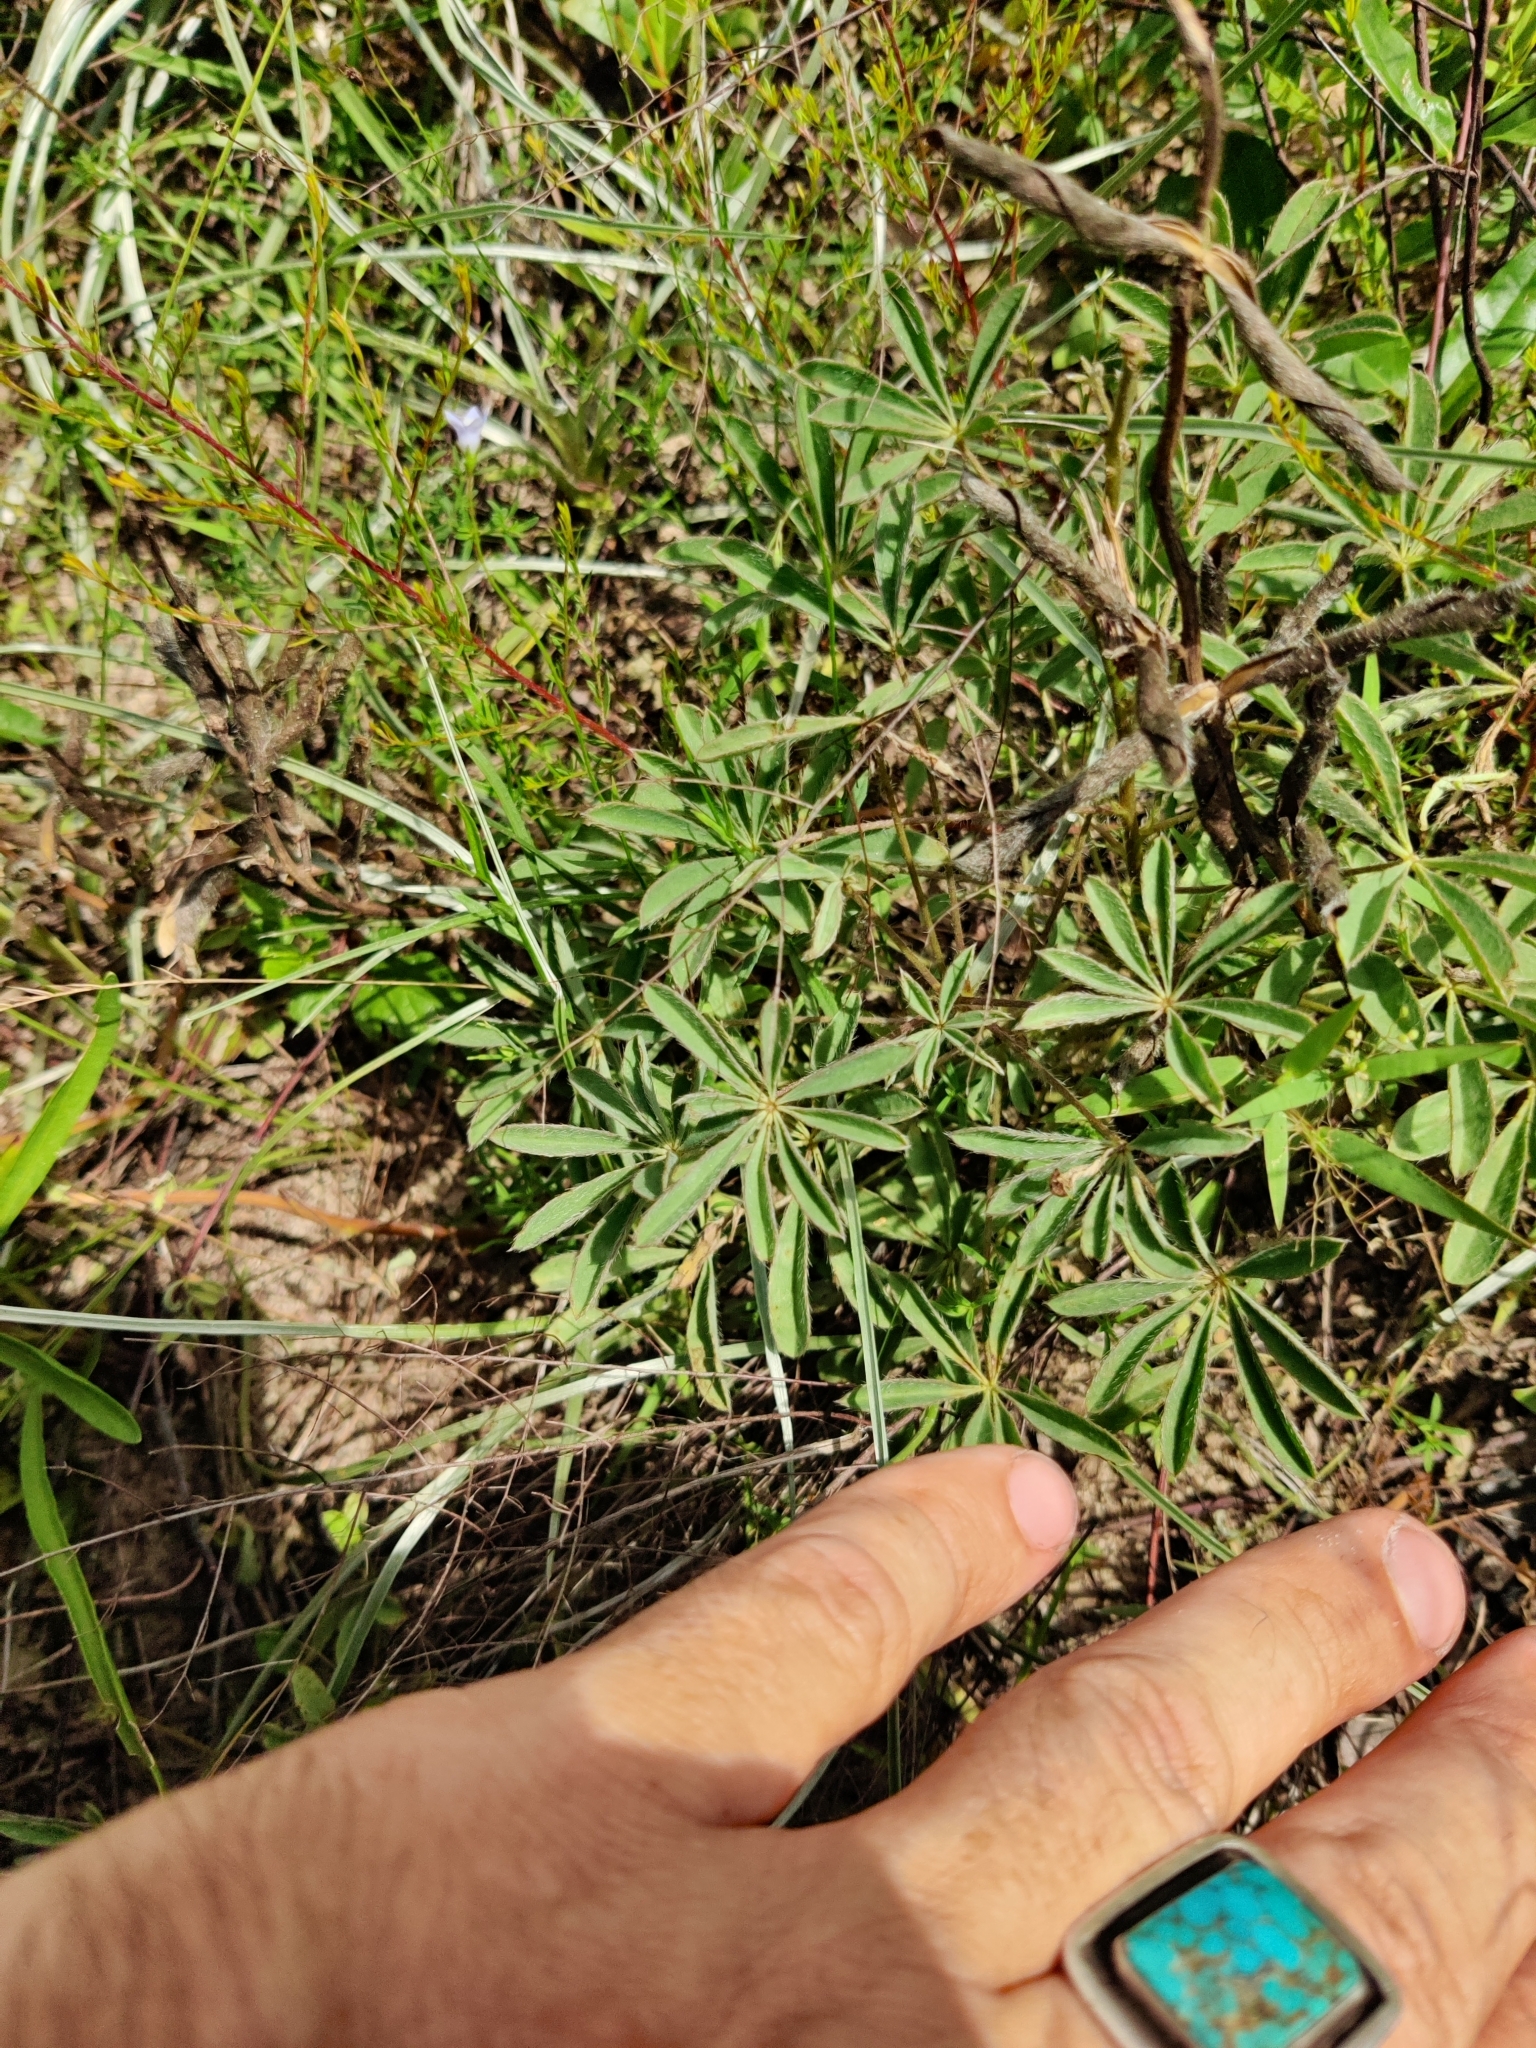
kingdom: Plantae
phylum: Tracheophyta
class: Magnoliopsida
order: Fabales
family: Fabaceae
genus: Lupinus
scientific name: Lupinus perennis
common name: Sundial lupine
